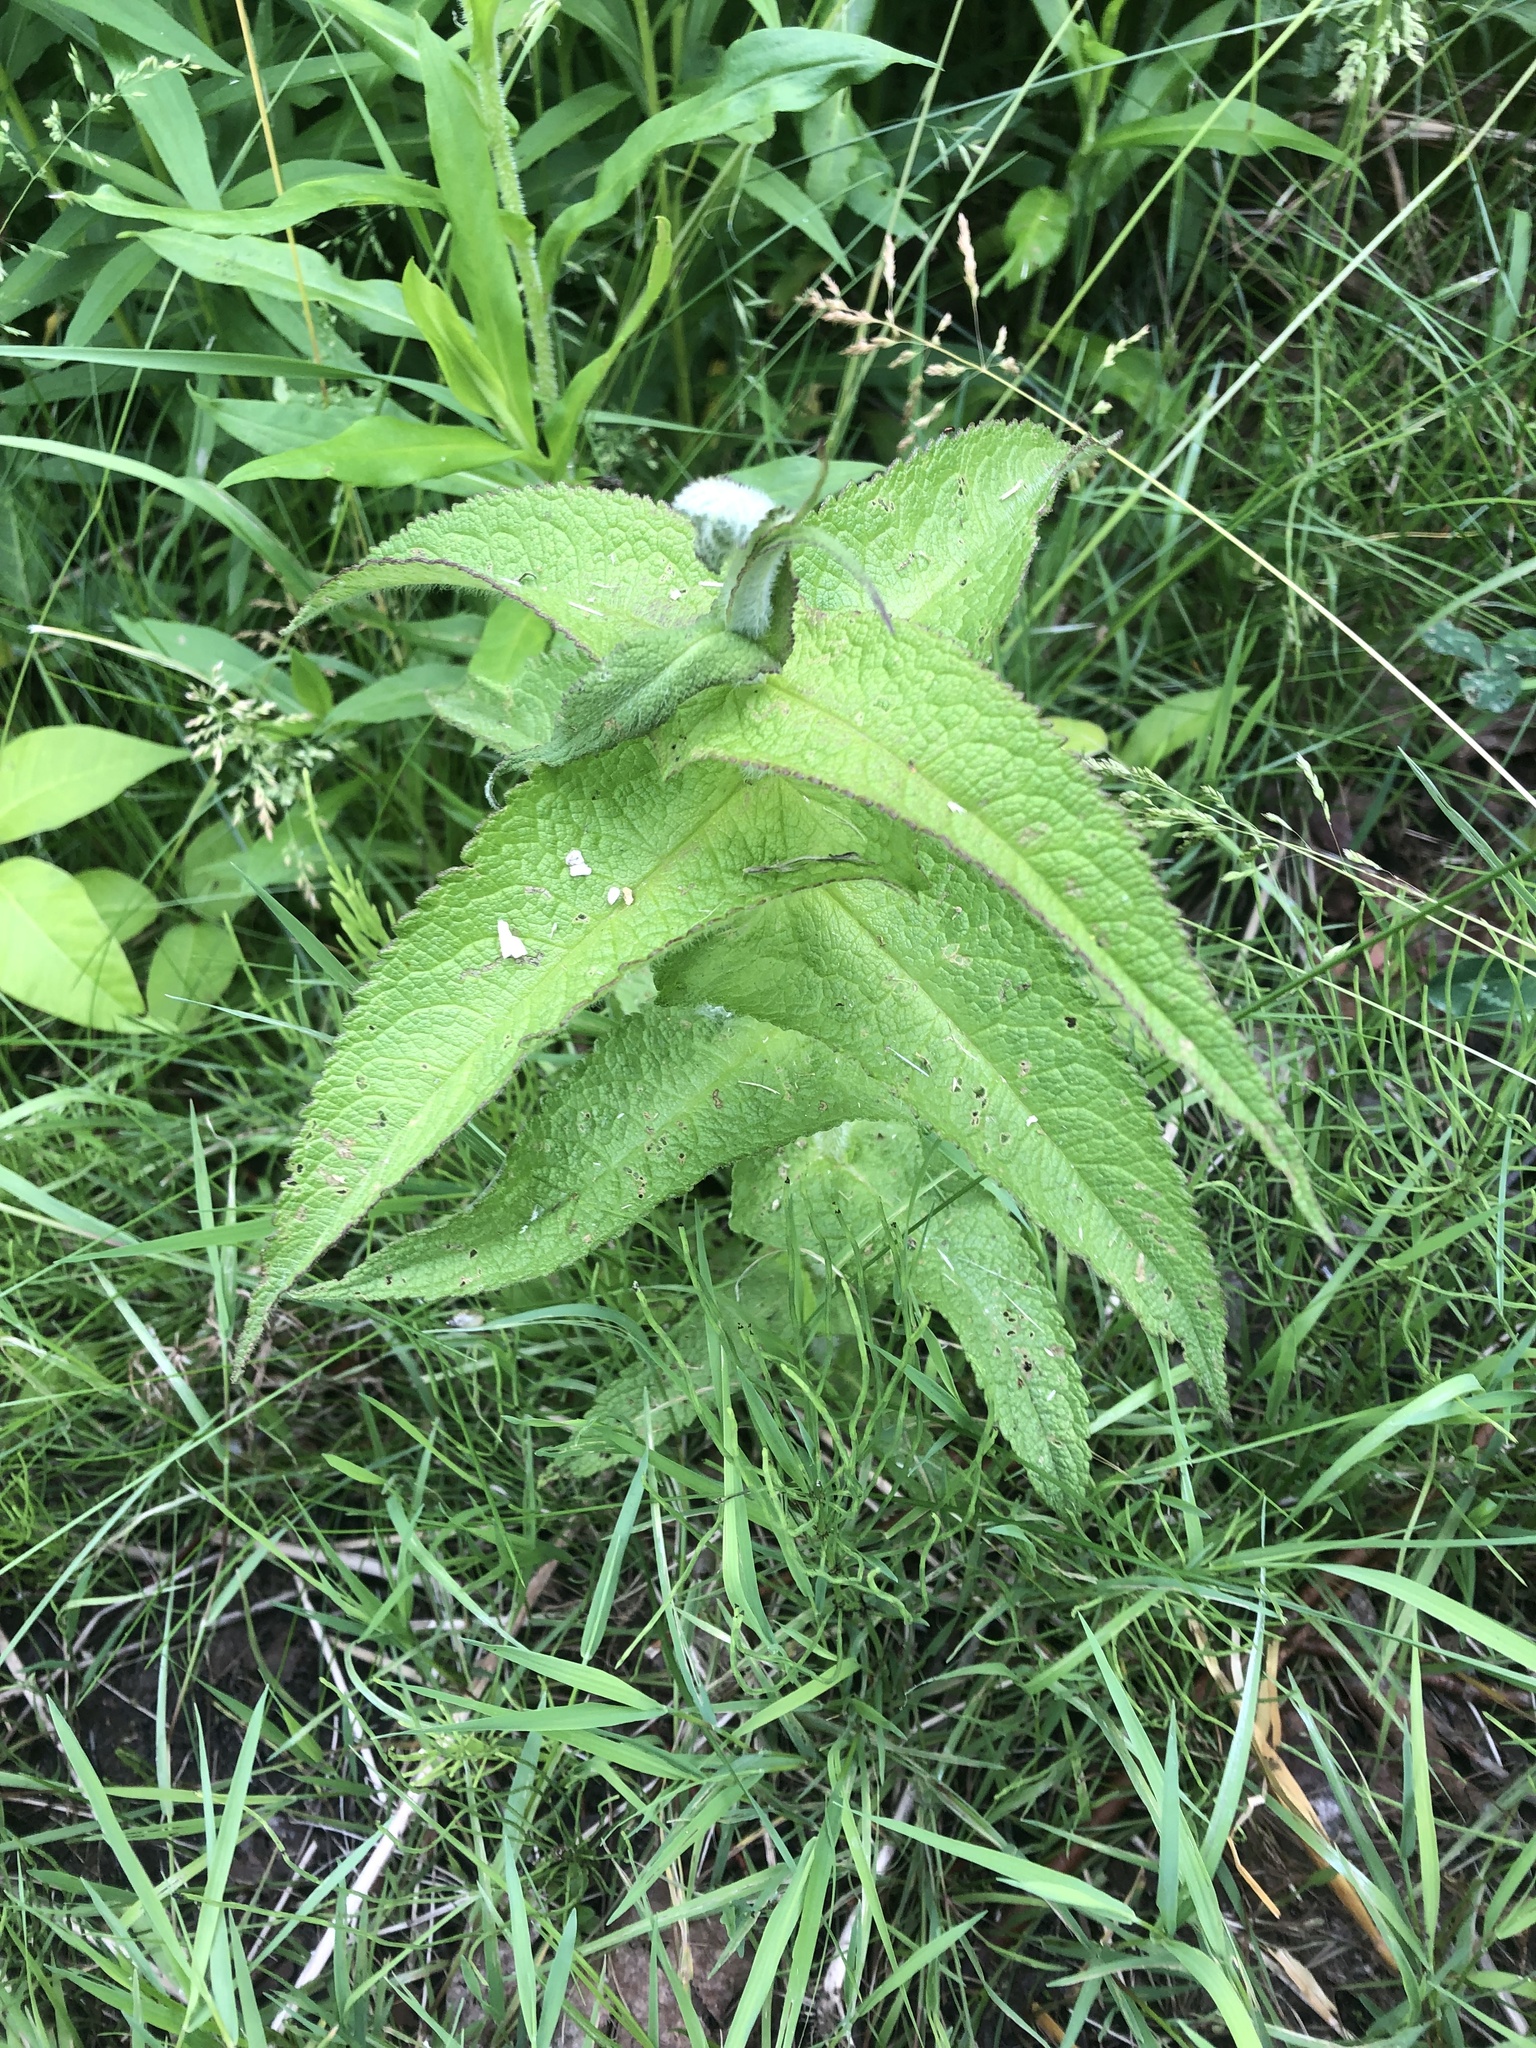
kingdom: Plantae
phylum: Tracheophyta
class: Magnoliopsida
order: Asterales
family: Asteraceae
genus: Eupatorium
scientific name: Eupatorium perfoliatum
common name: Boneset
